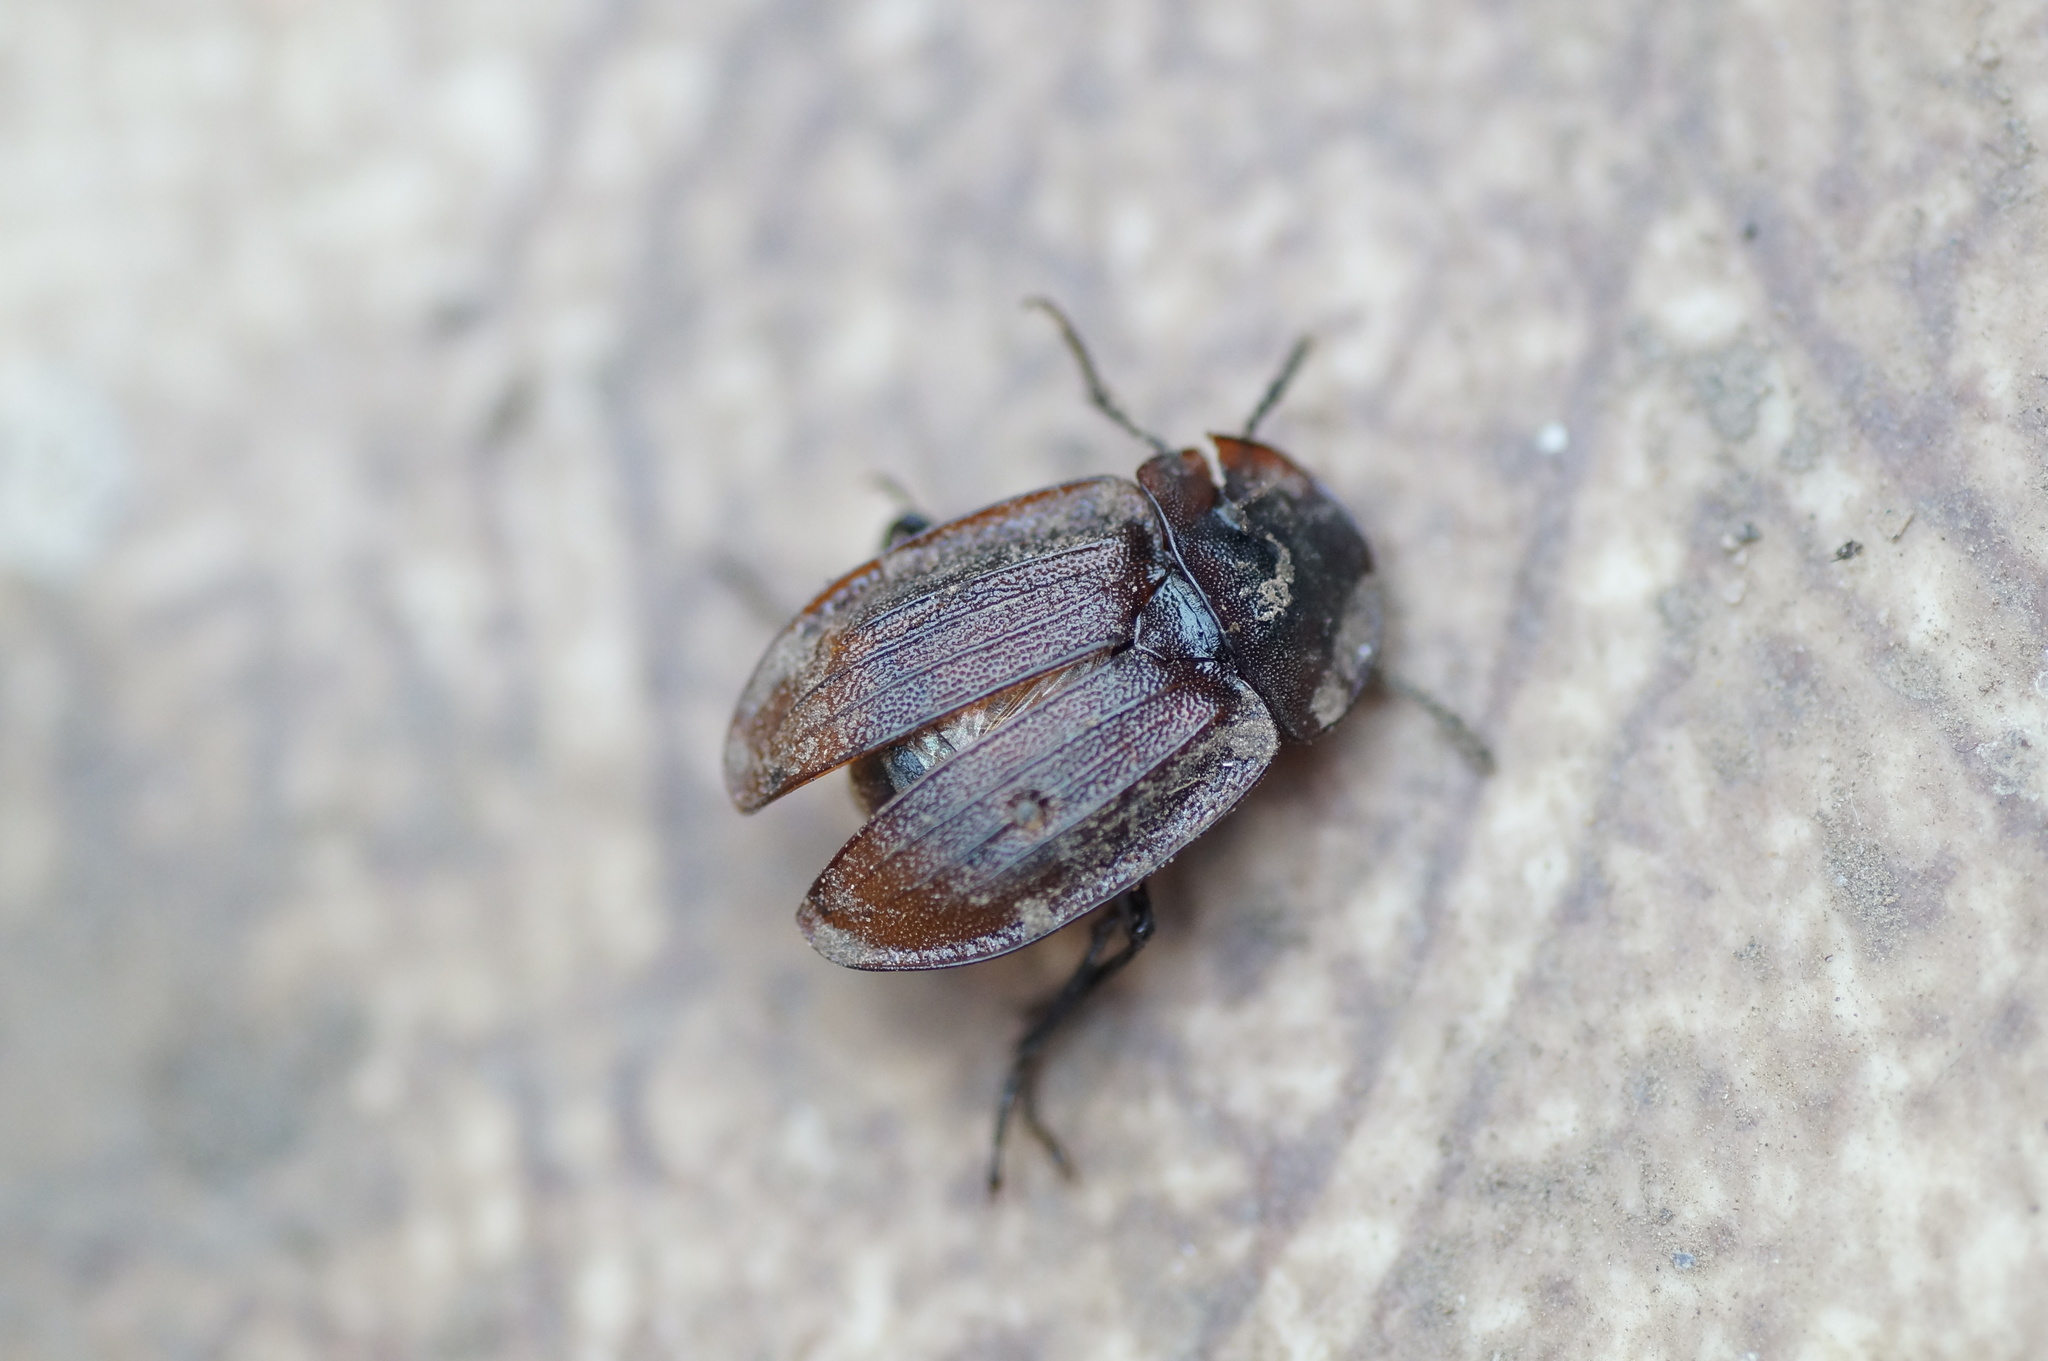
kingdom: Animalia
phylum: Arthropoda
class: Insecta
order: Coleoptera
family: Staphylinidae
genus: Silpha
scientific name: Silpha atrata
